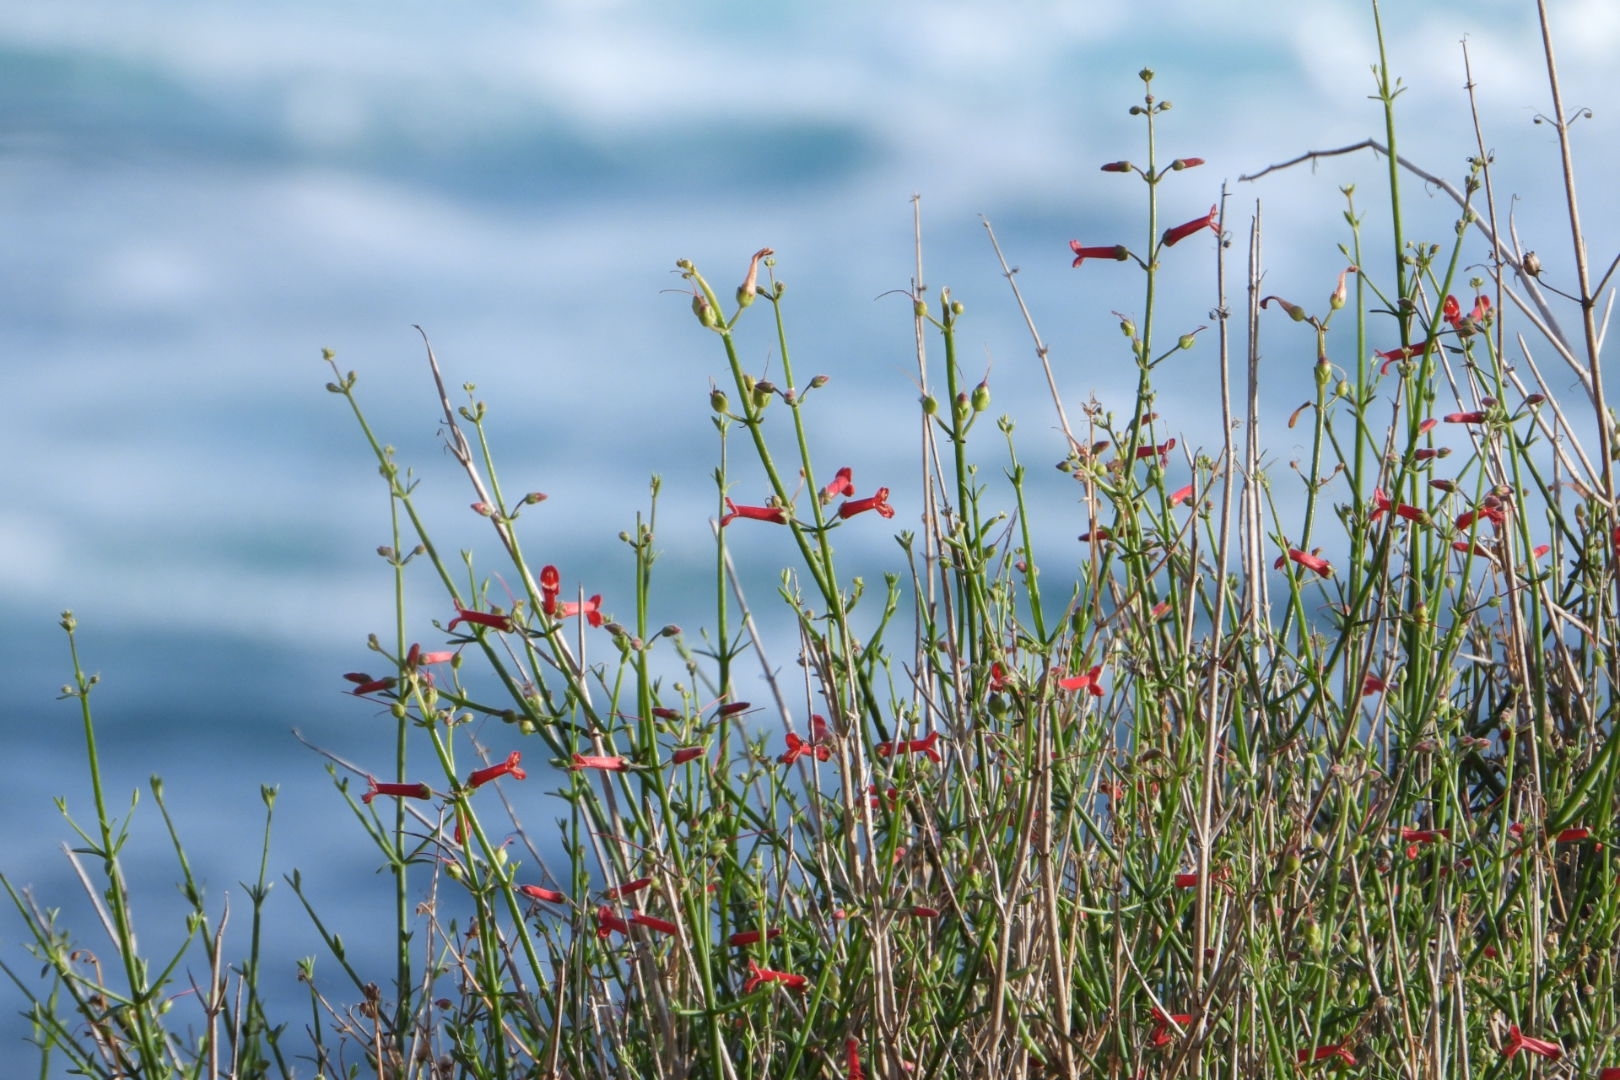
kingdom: Plantae
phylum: Tracheophyta
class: Magnoliopsida
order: Lamiales
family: Plantaginaceae
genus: Gambelia
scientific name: Gambelia juncea
